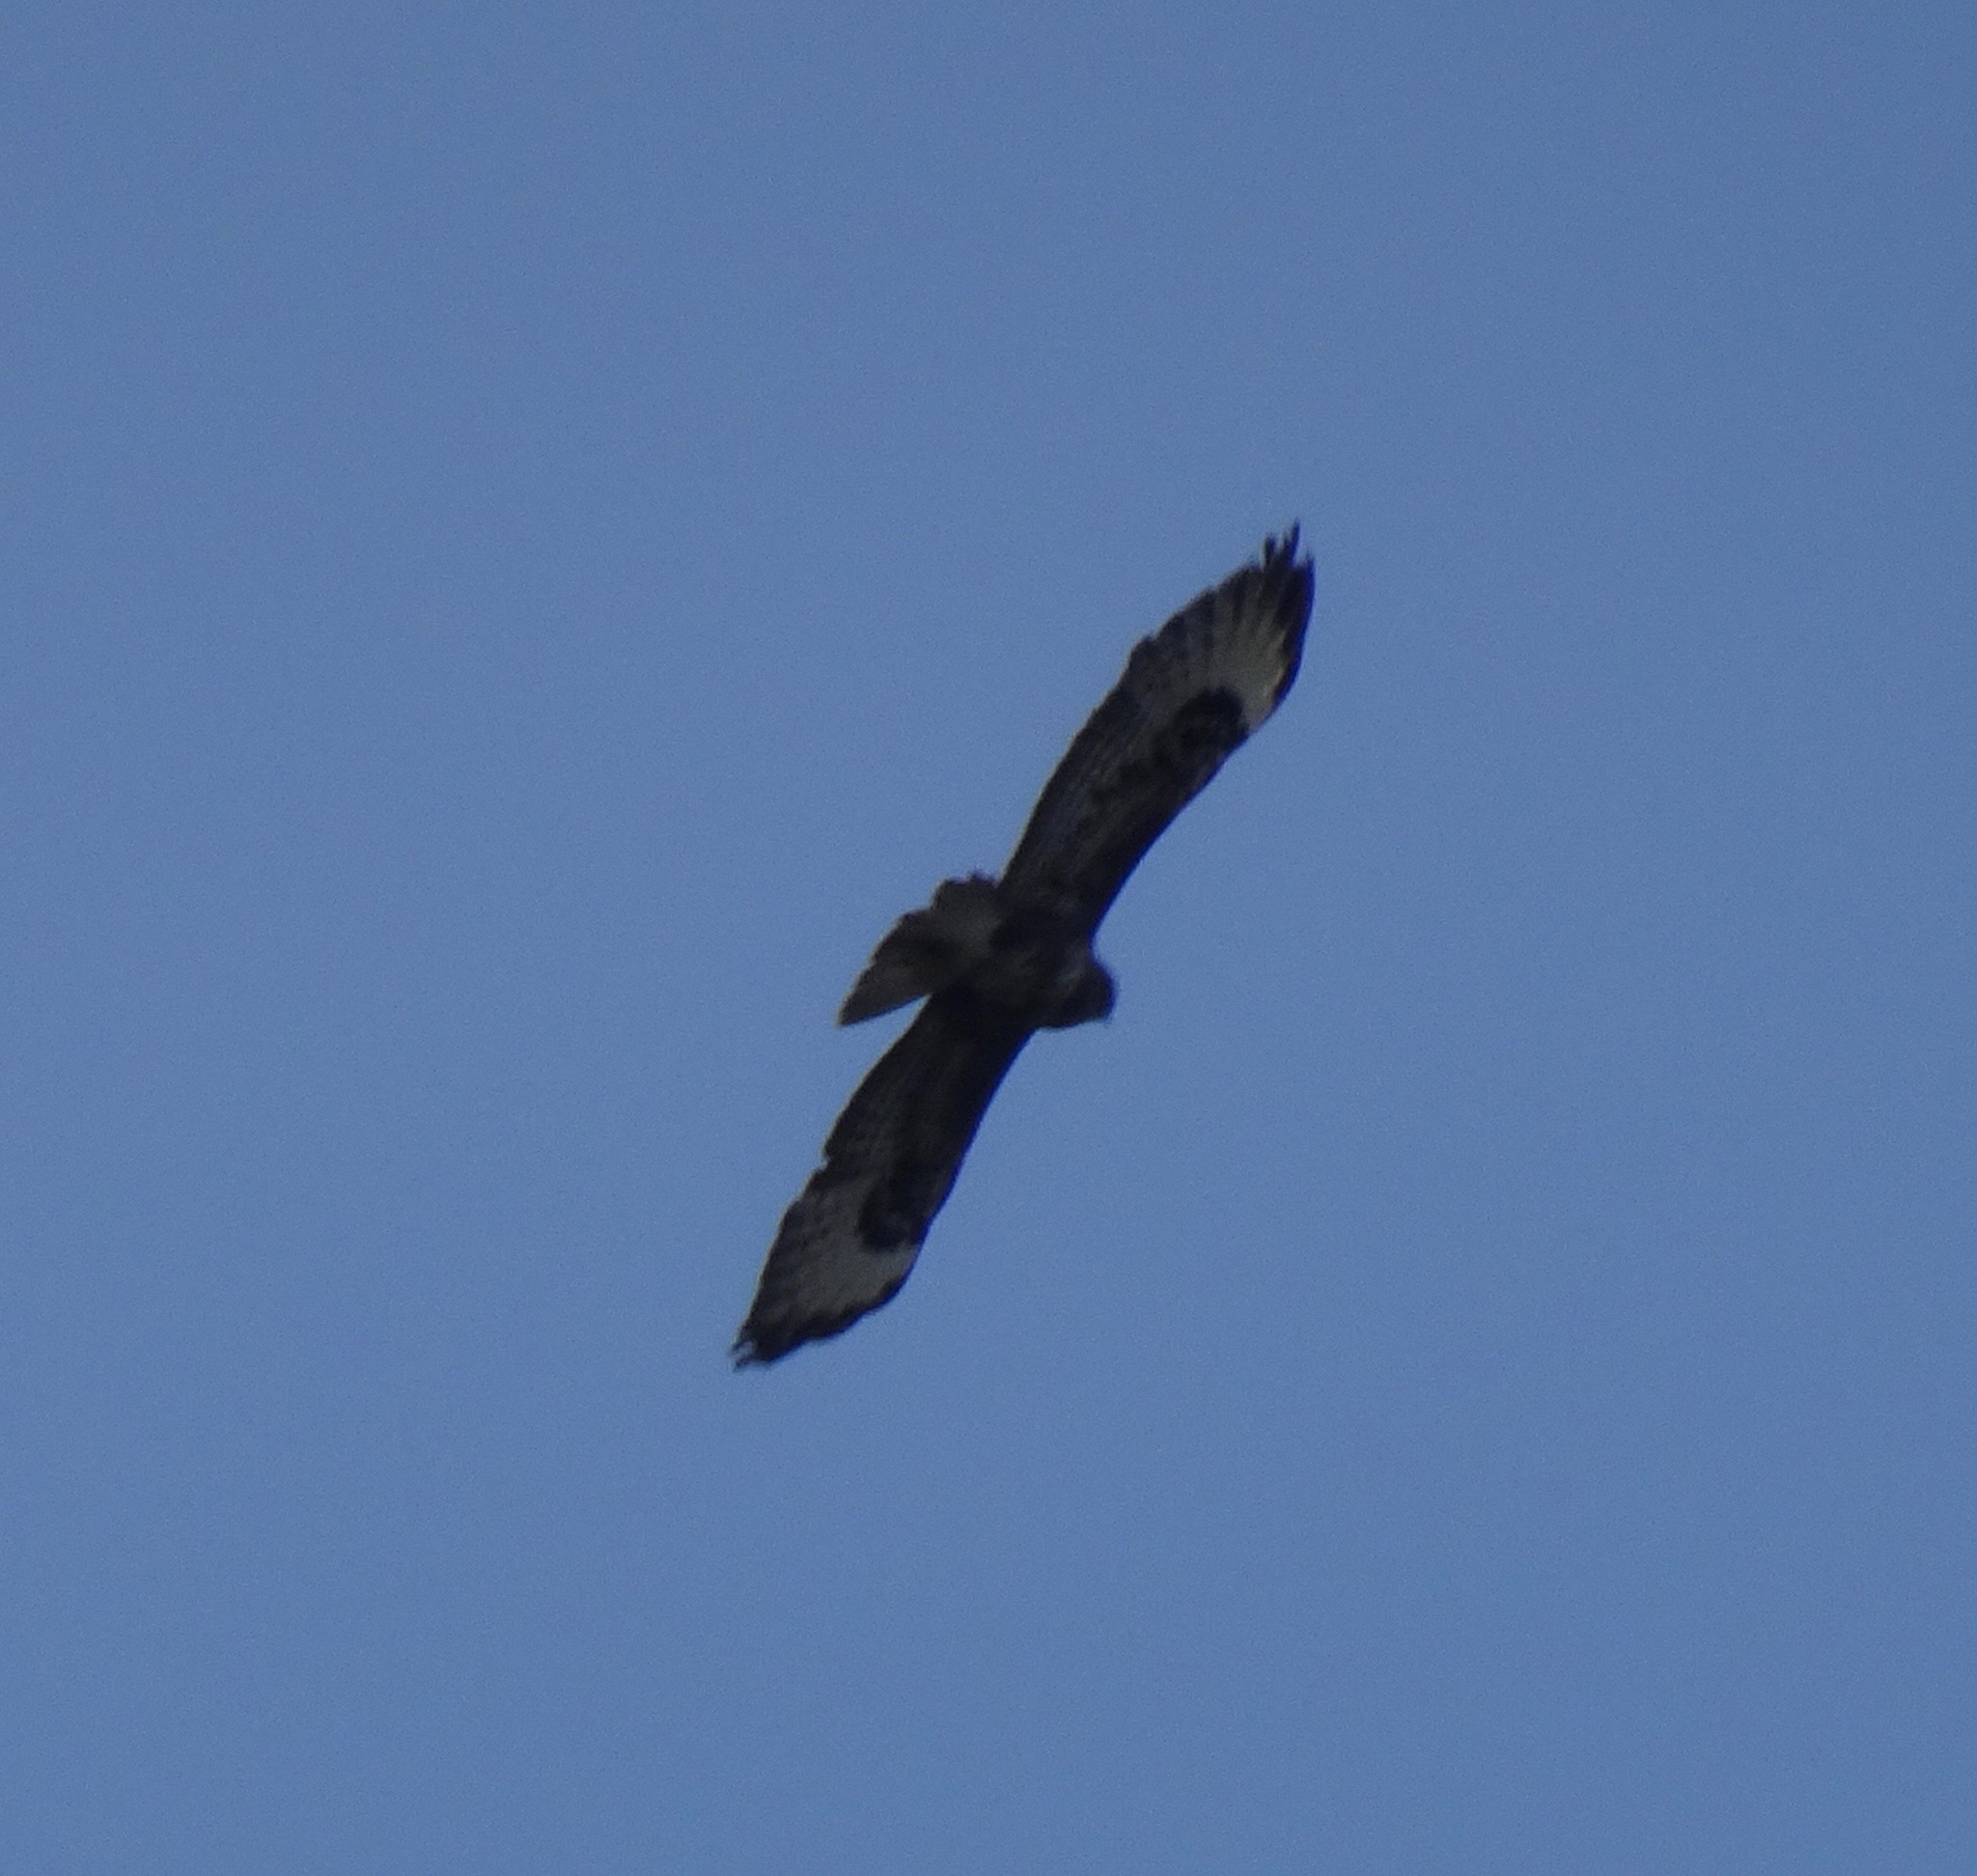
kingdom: Animalia
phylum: Chordata
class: Aves
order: Accipitriformes
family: Accipitridae
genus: Buteo
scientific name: Buteo buteo
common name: Common buzzard
